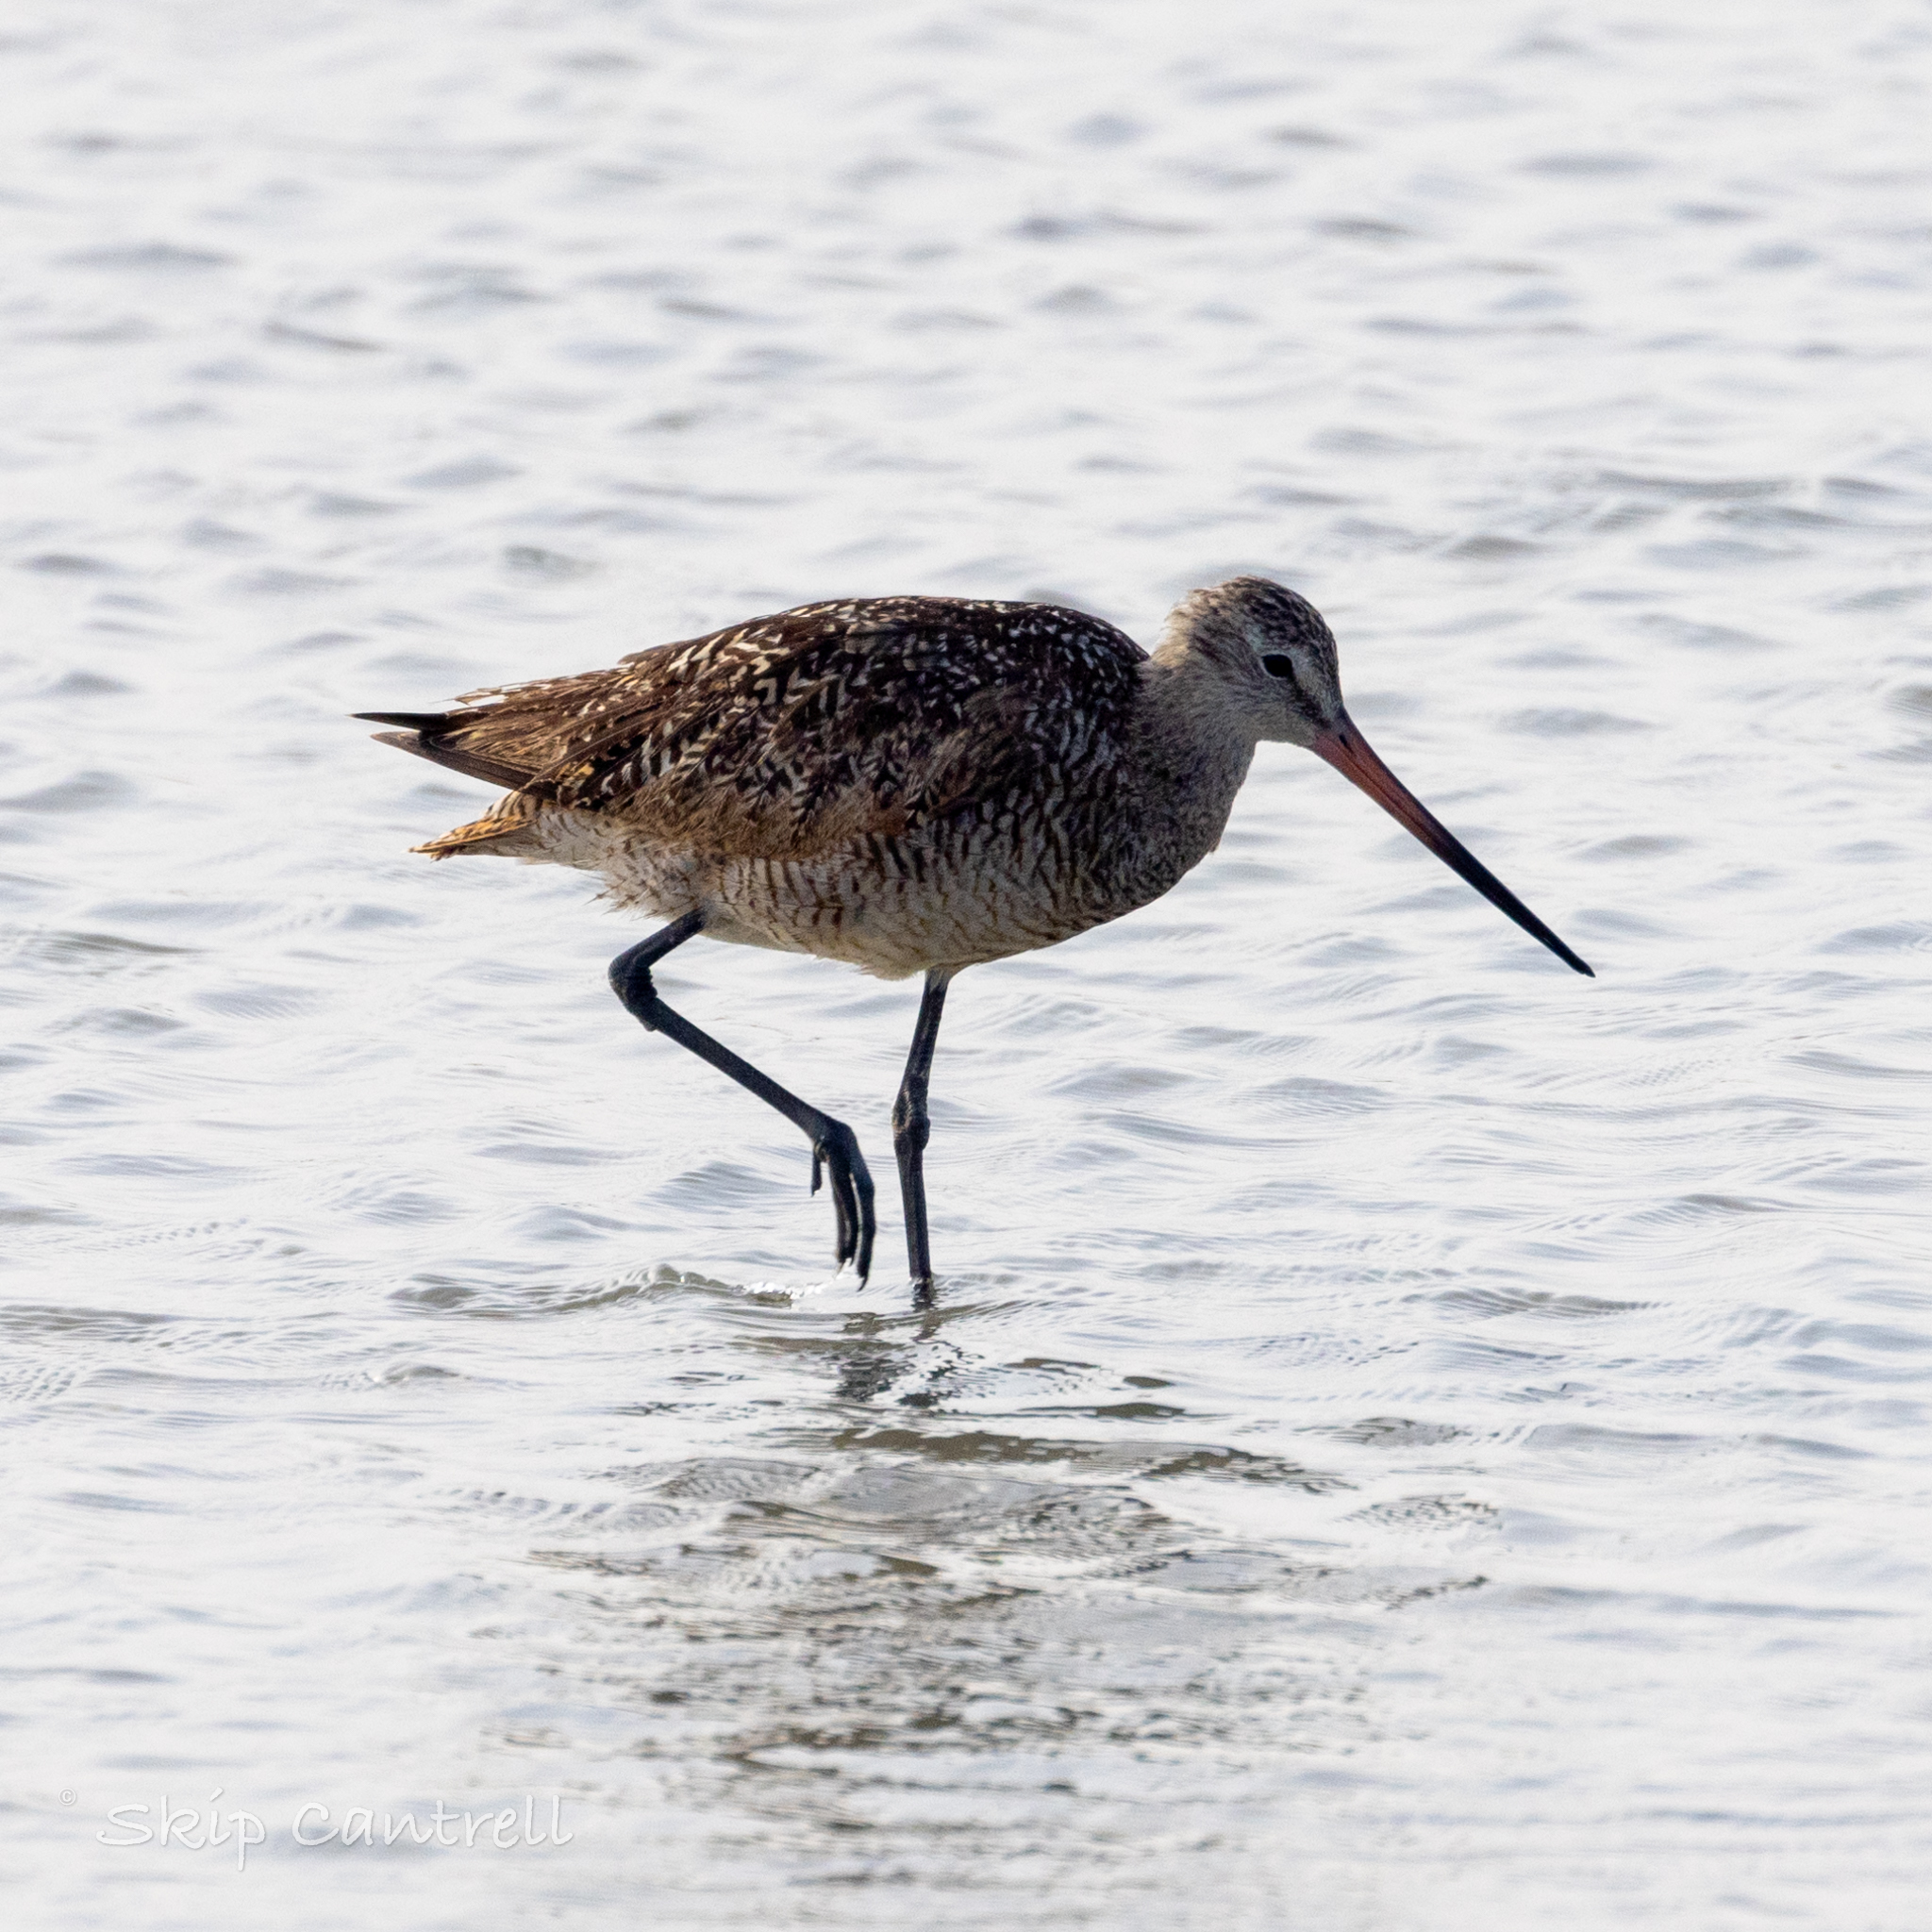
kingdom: Animalia
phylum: Chordata
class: Aves
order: Charadriiformes
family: Scolopacidae
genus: Limosa
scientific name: Limosa fedoa
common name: Marbled godwit
